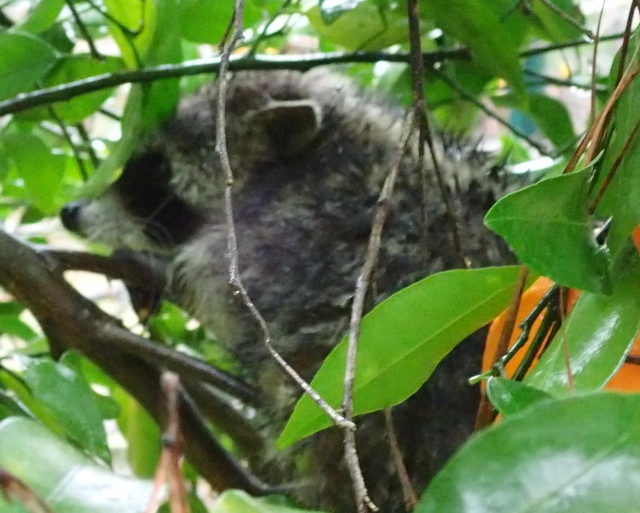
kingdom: Animalia
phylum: Chordata
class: Mammalia
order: Carnivora
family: Procyonidae
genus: Procyon
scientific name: Procyon lotor
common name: Raccoon
